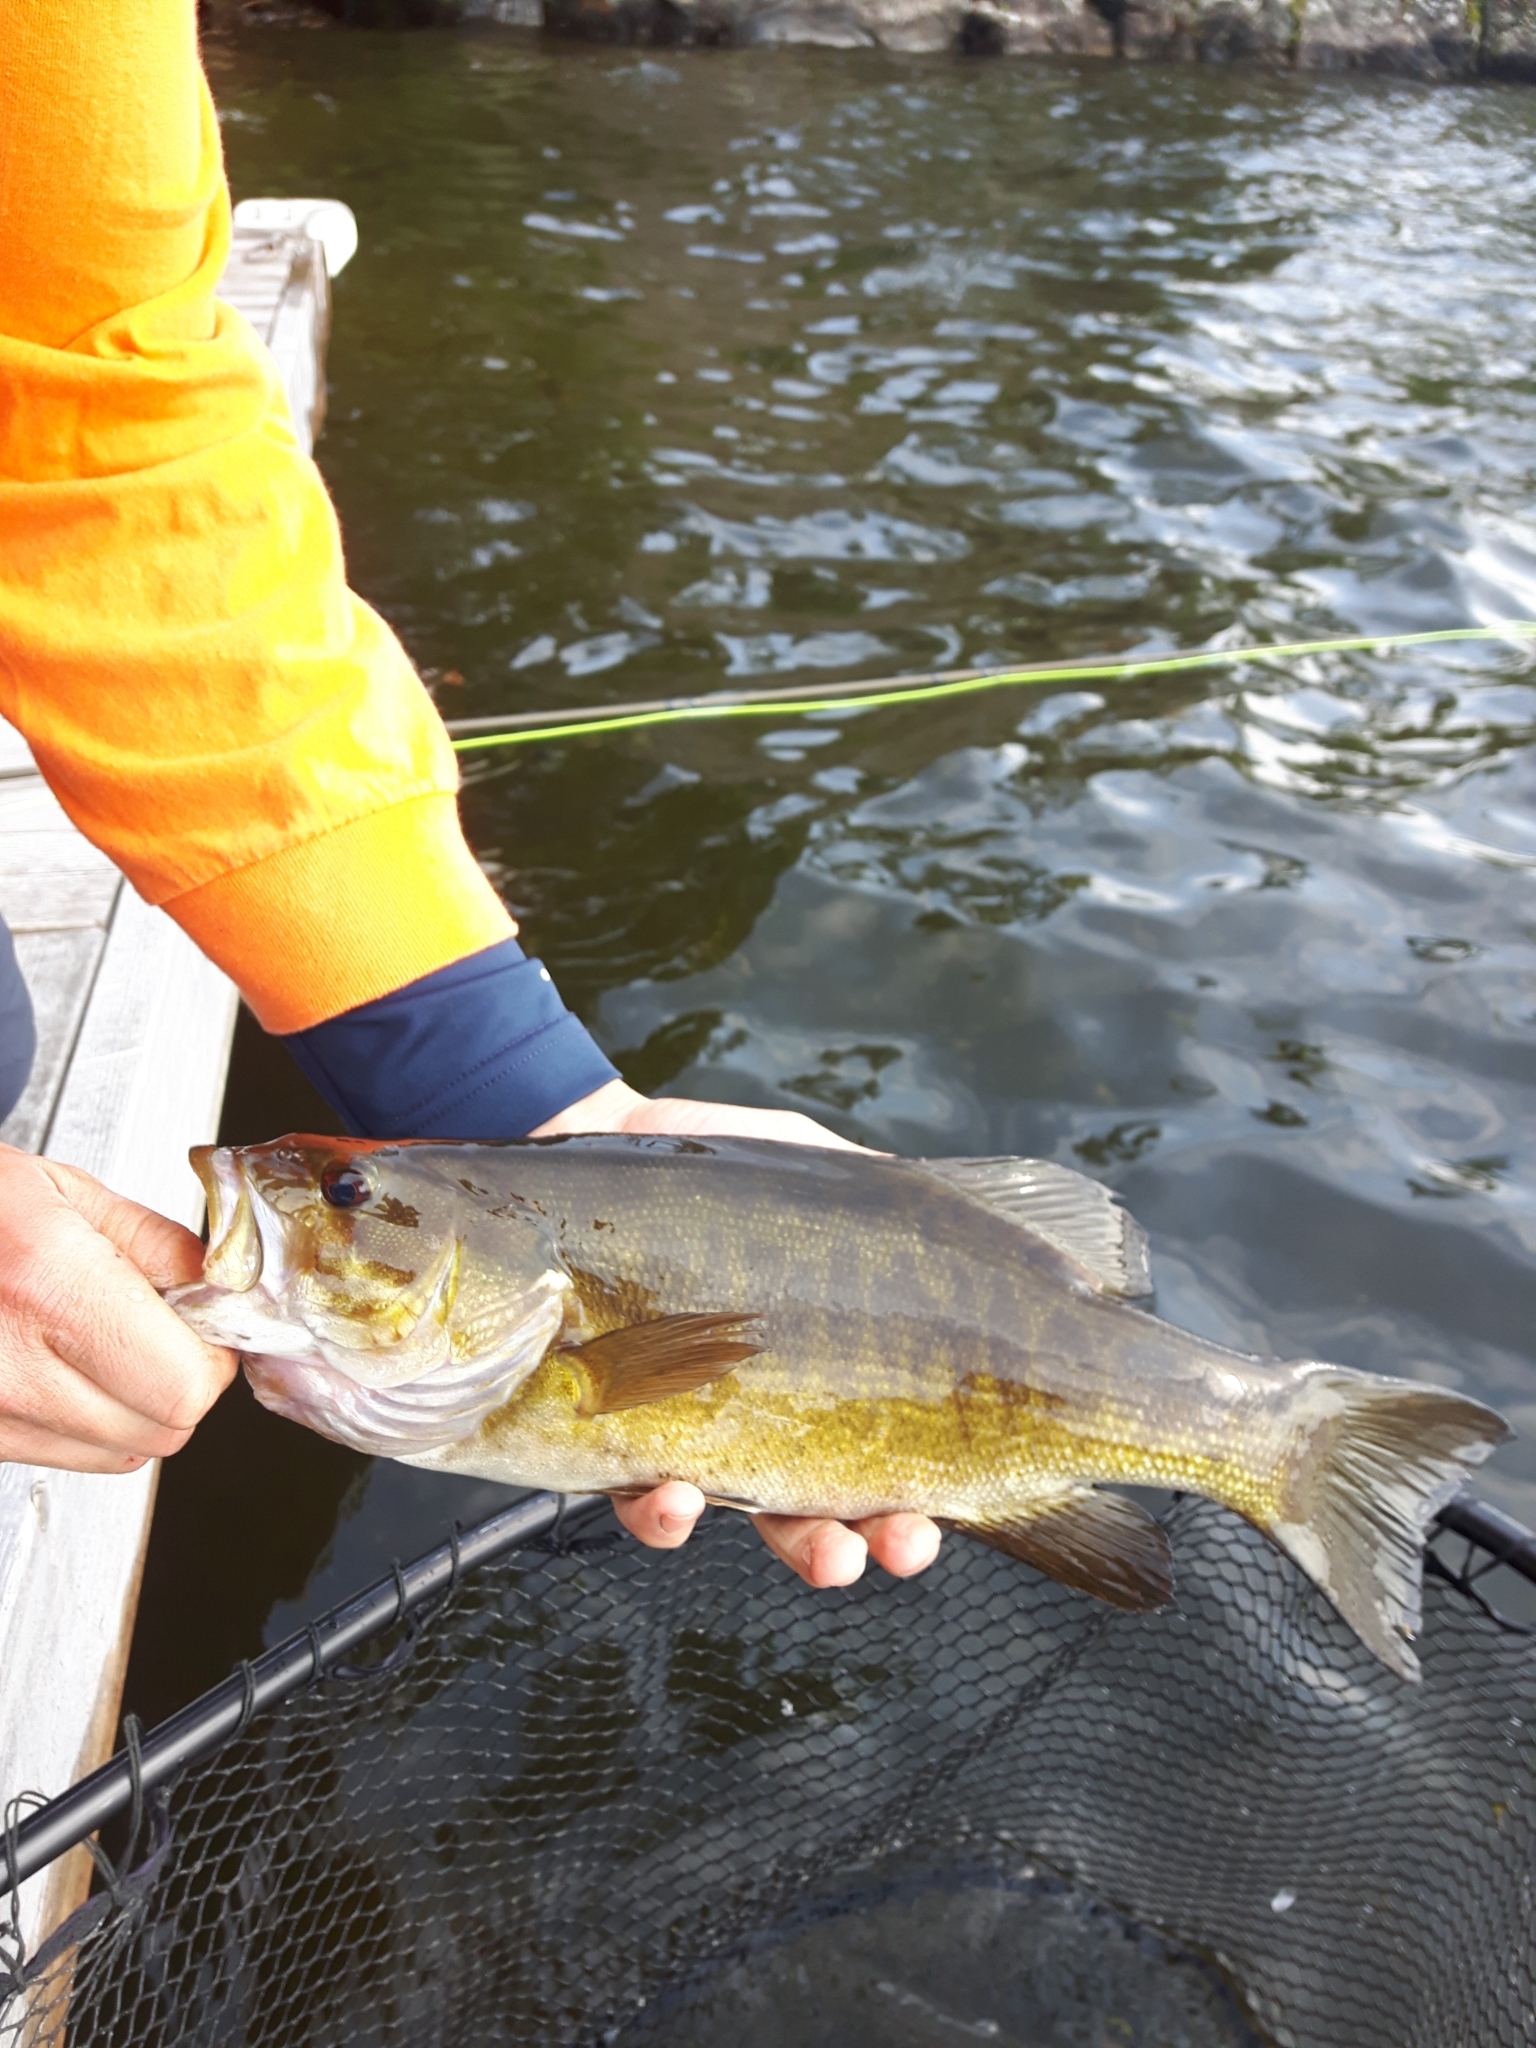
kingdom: Animalia
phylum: Chordata
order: Perciformes
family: Centrarchidae
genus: Micropterus
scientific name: Micropterus dolomieu
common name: Smallmouth bass
